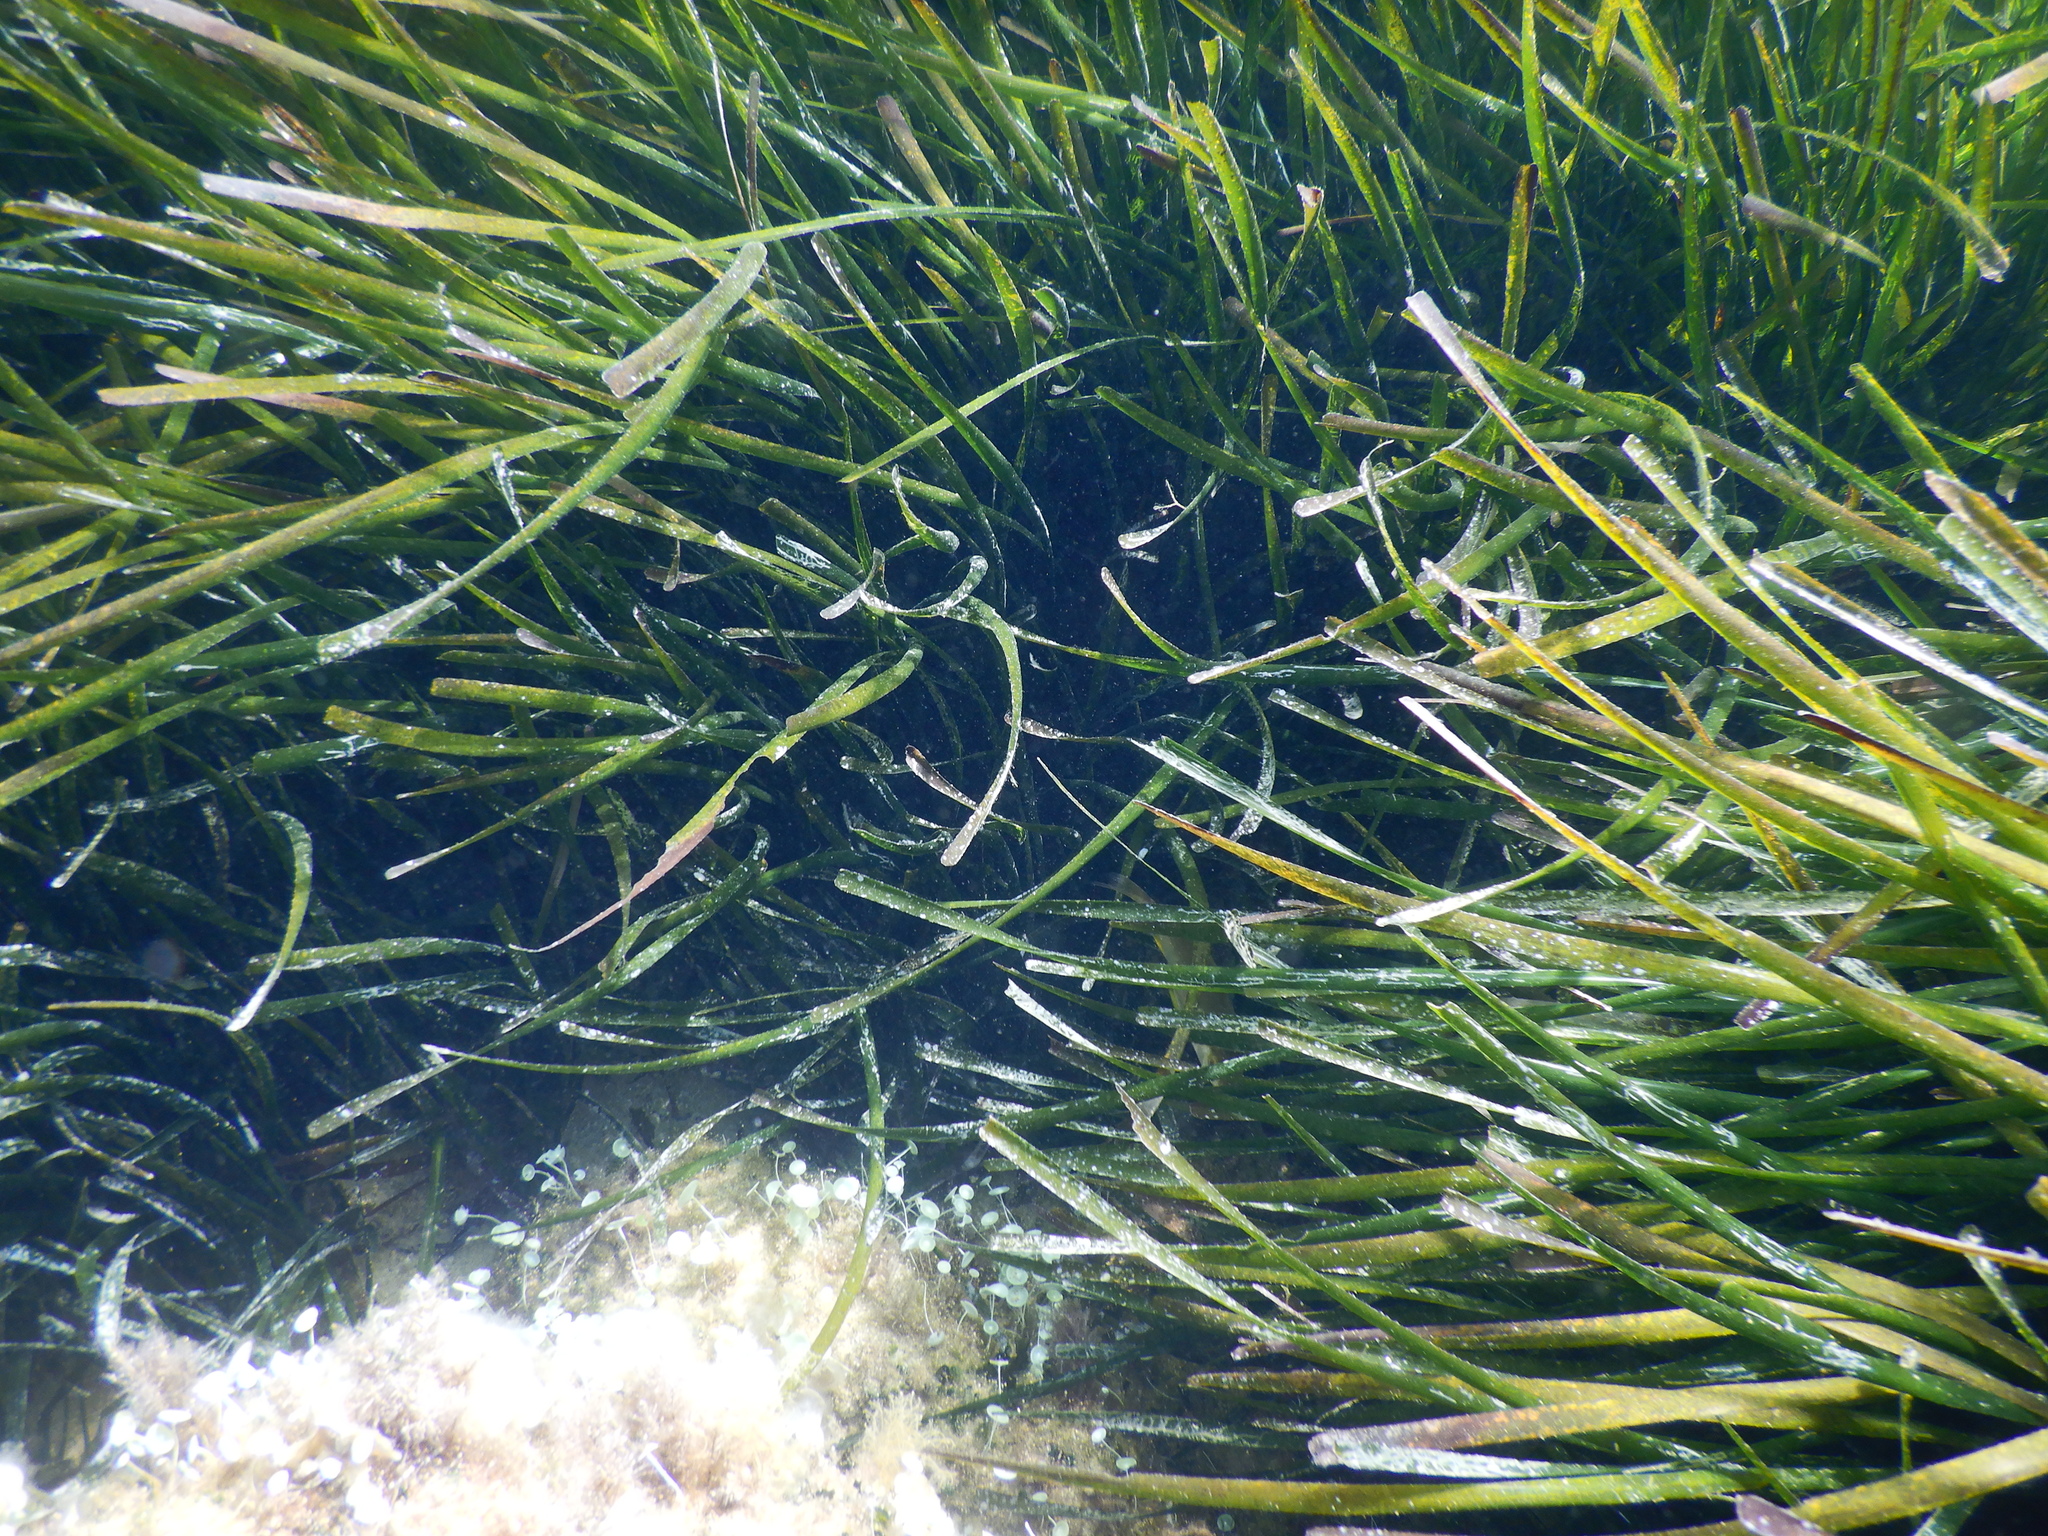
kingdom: Plantae
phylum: Tracheophyta
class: Liliopsida
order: Alismatales
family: Posidoniaceae
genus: Posidonia
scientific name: Posidonia oceanica
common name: Mediterranean tapeweed
